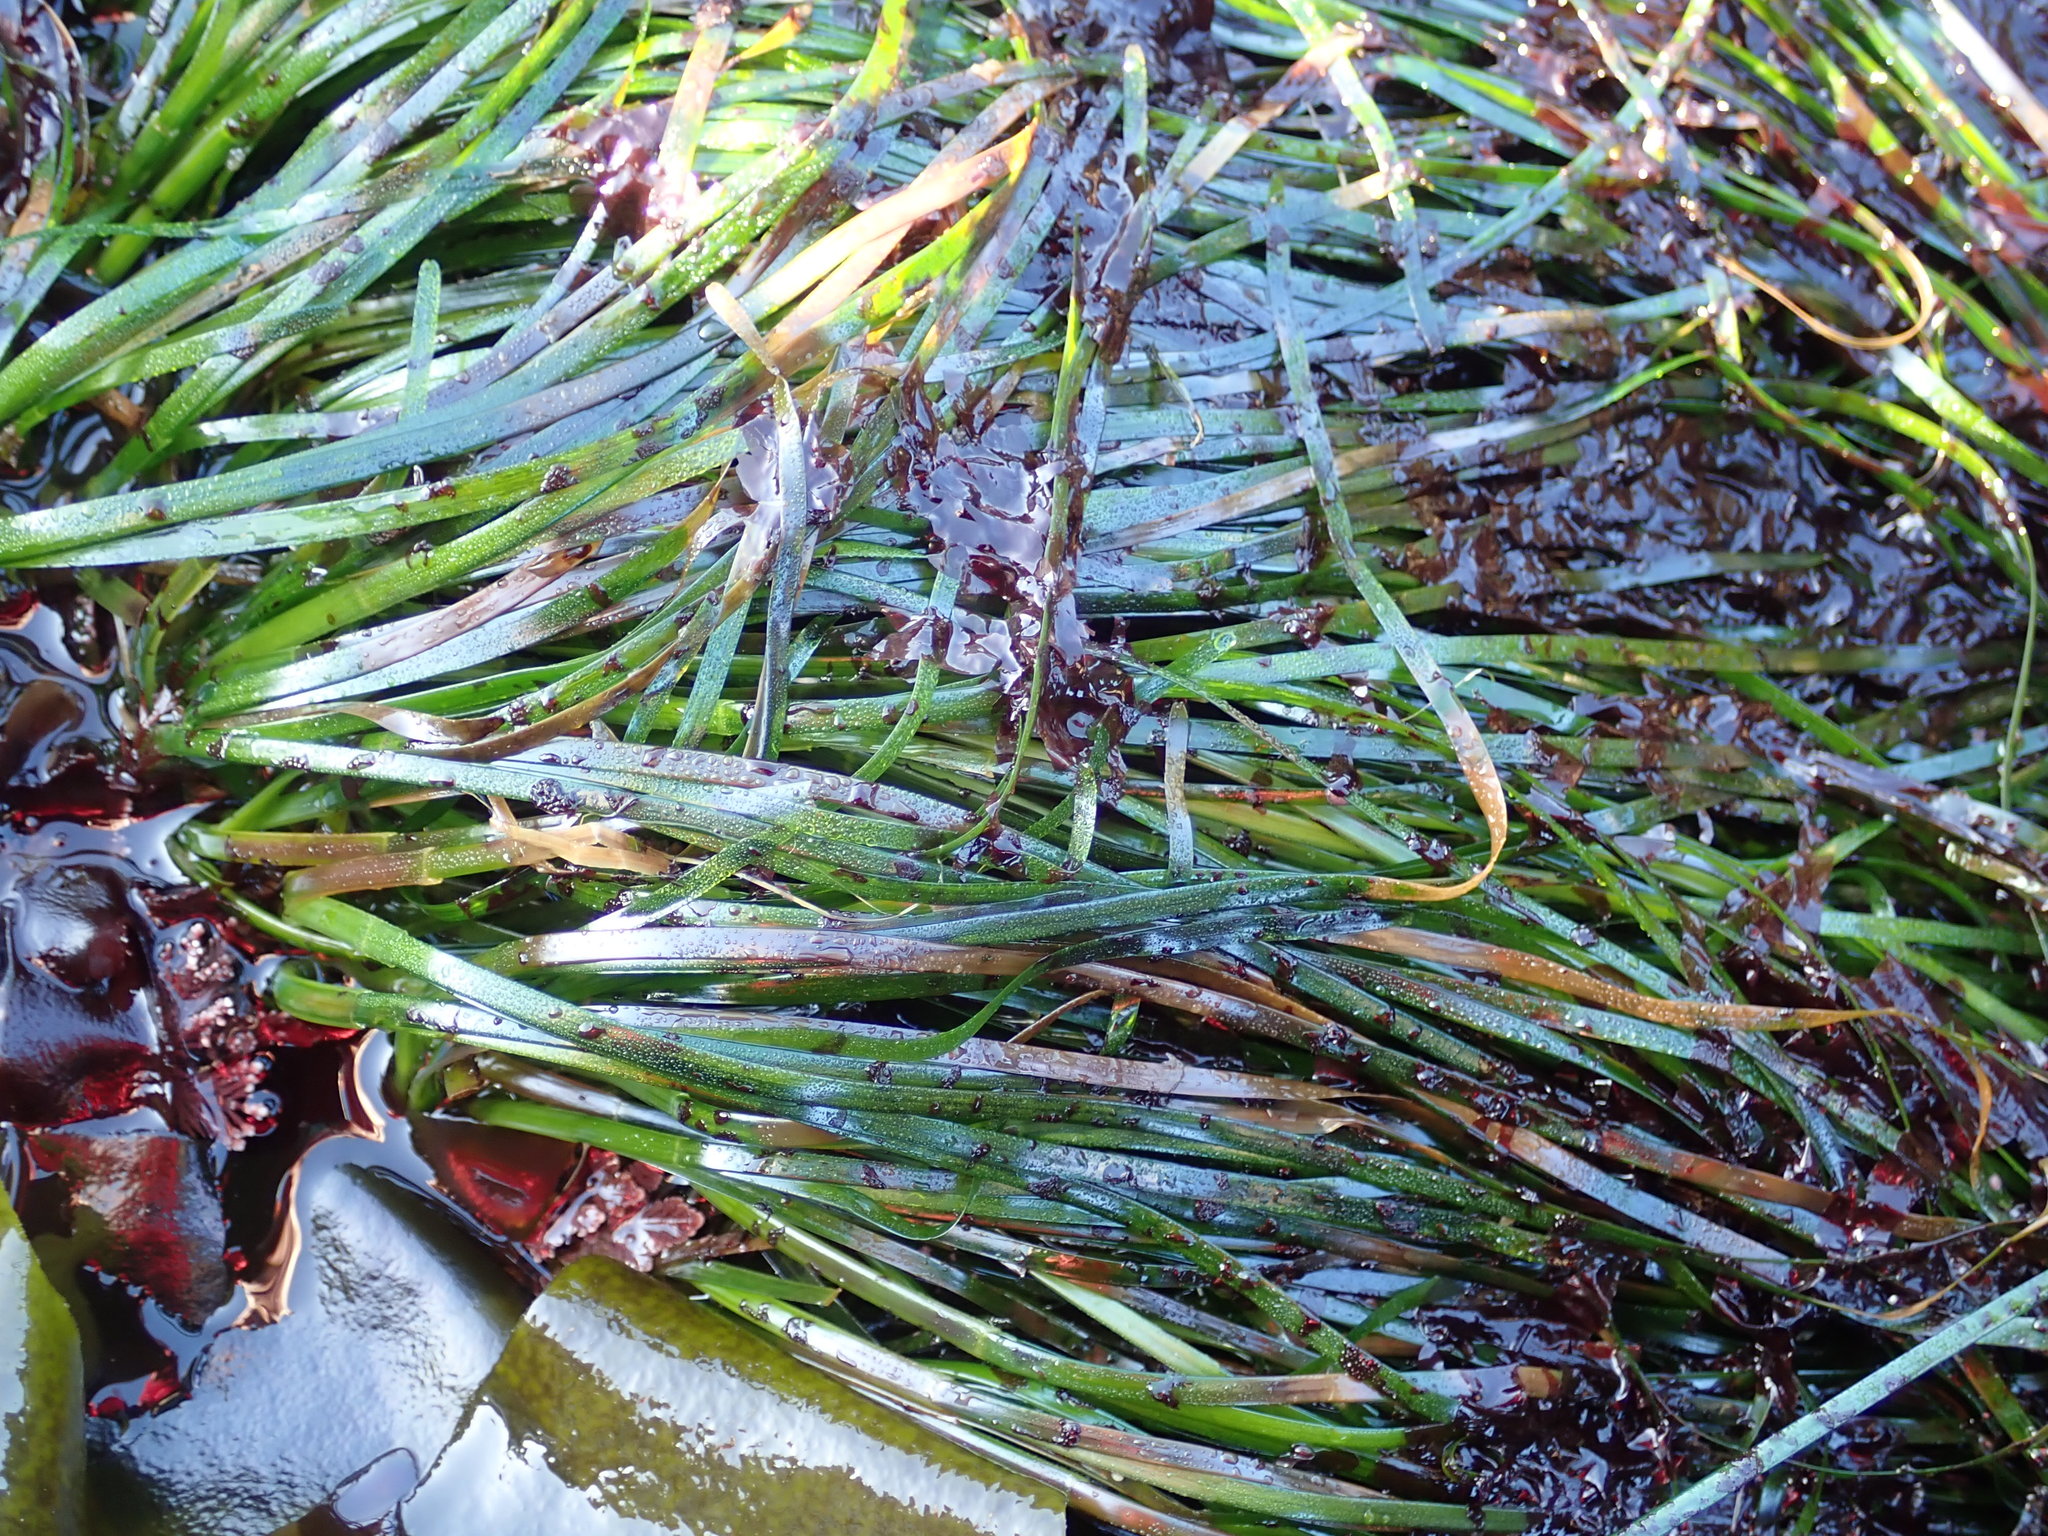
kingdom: Plantae
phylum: Tracheophyta
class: Liliopsida
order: Alismatales
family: Zosteraceae
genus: Phyllospadix
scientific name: Phyllospadix scouleri
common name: Species code: ps
